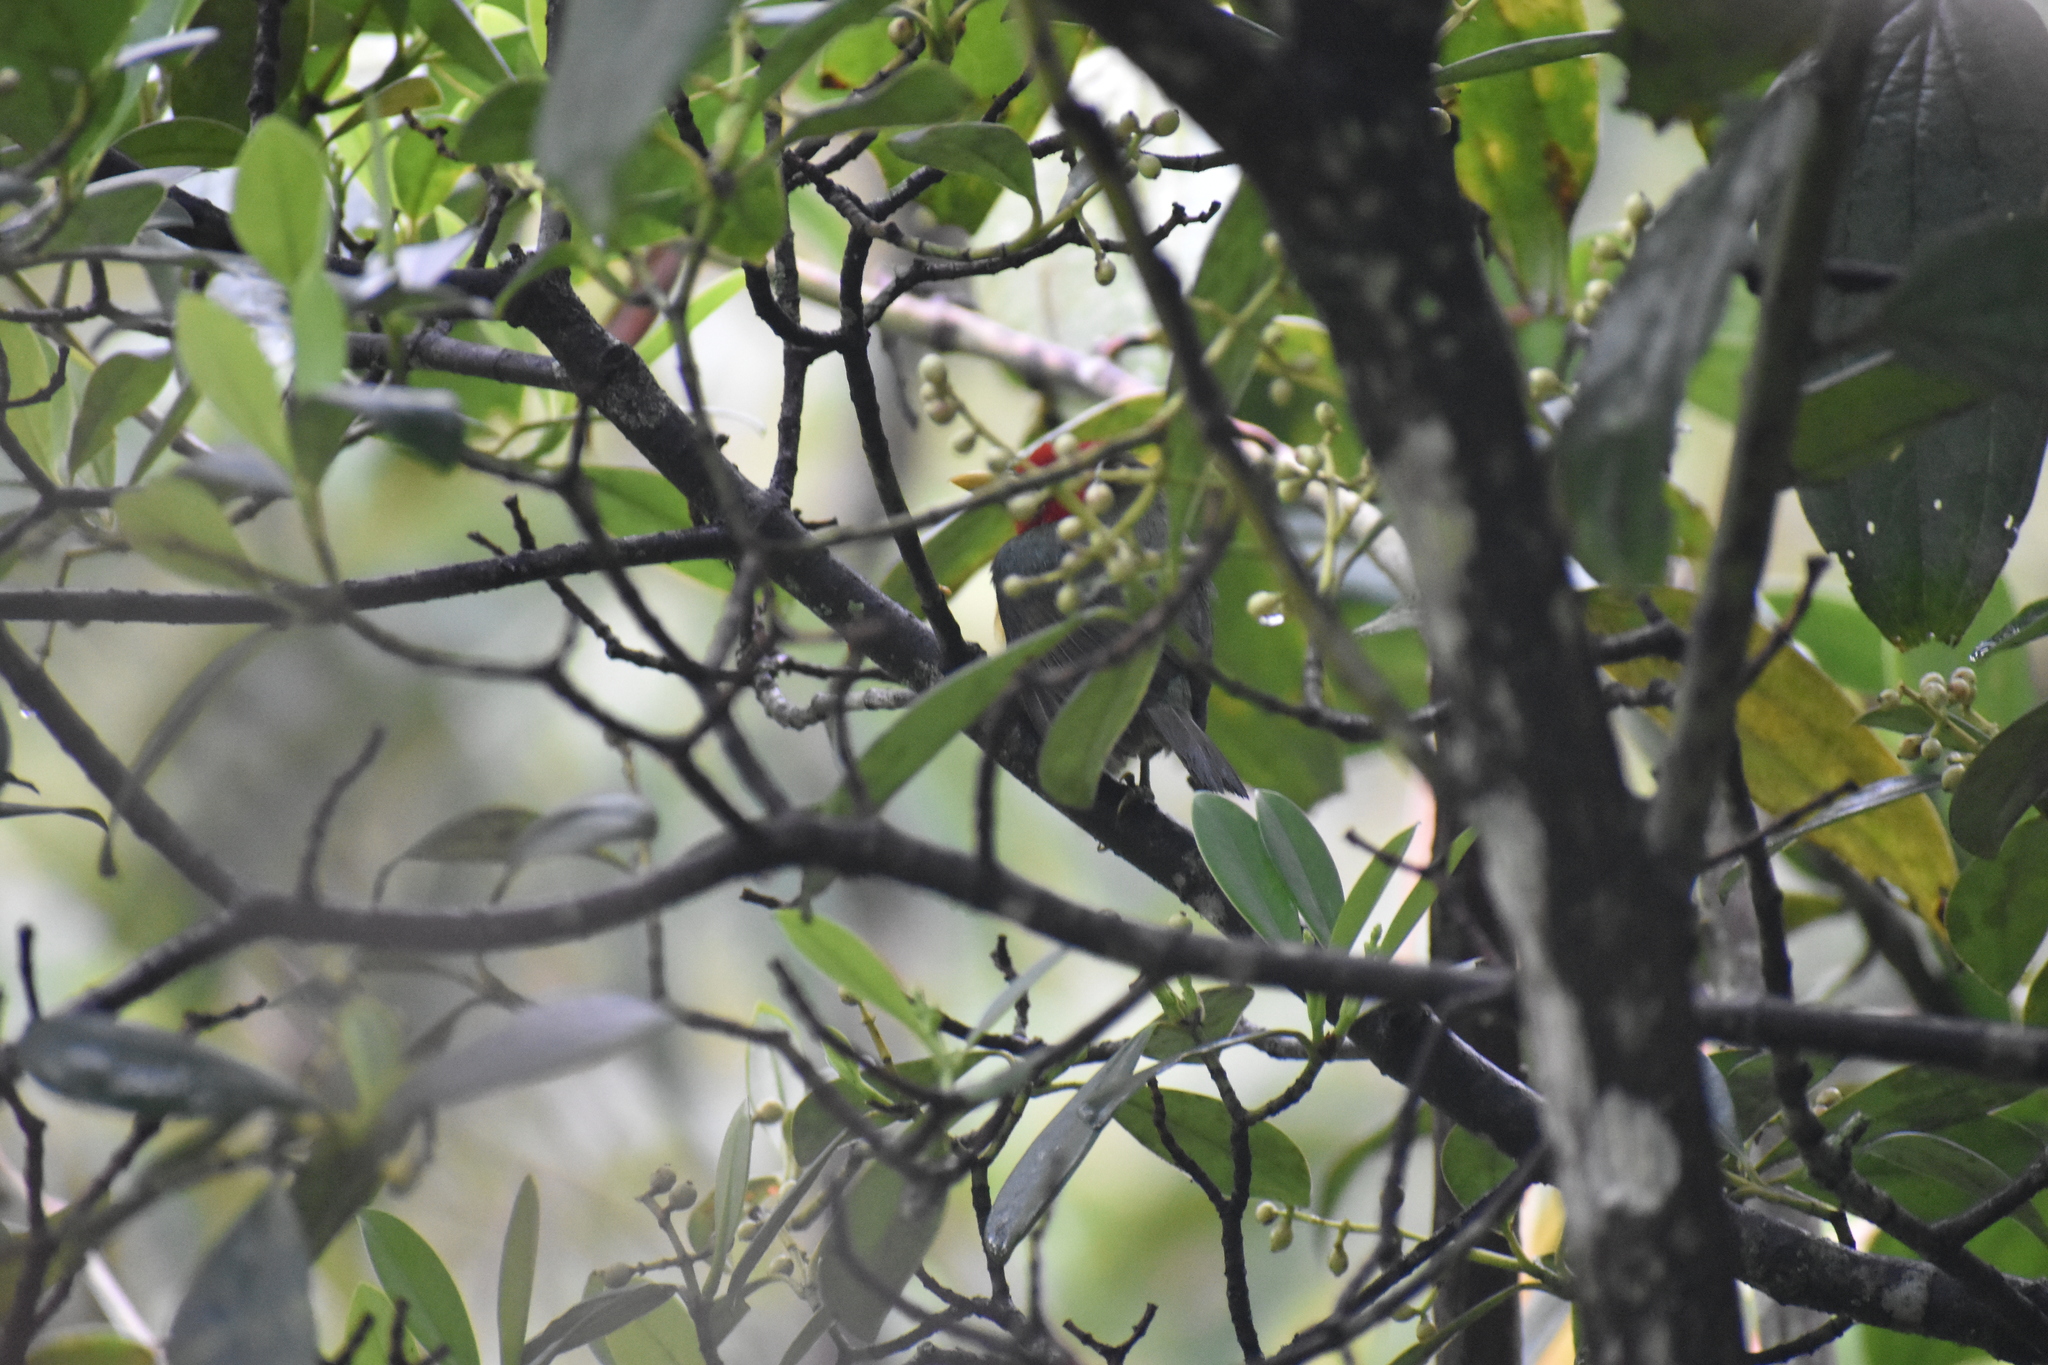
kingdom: Animalia
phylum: Chordata
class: Aves
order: Piciformes
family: Capitonidae
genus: Eubucco
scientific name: Eubucco bourcierii
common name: Red-headed barbet
